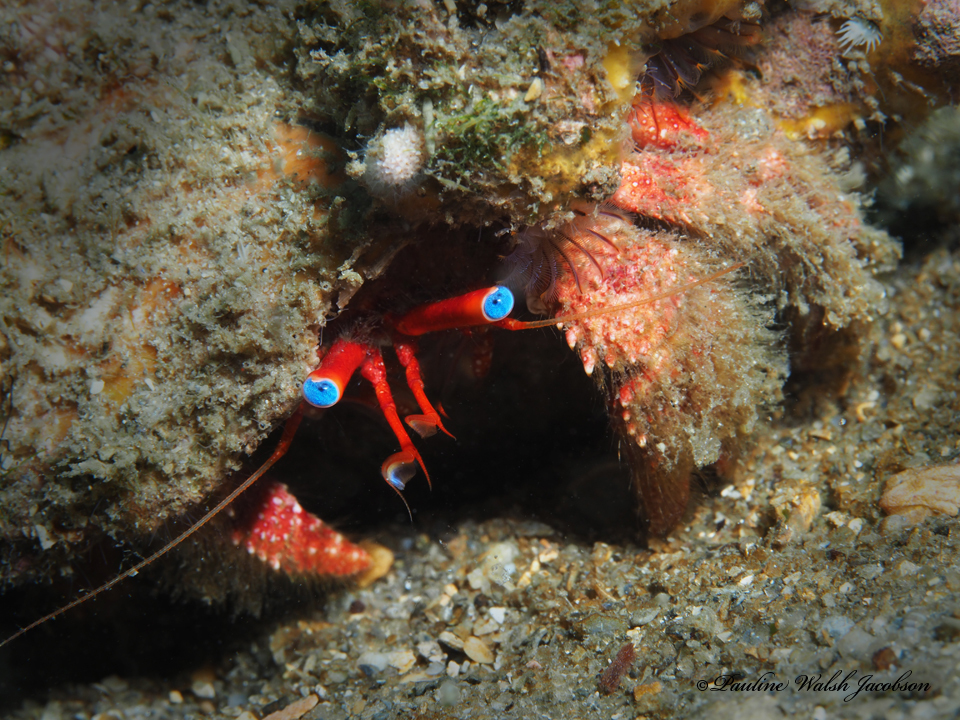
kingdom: Animalia
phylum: Arthropoda
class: Malacostraca
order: Decapoda
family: Diogenidae
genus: Paguristes
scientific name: Paguristes sericeus
